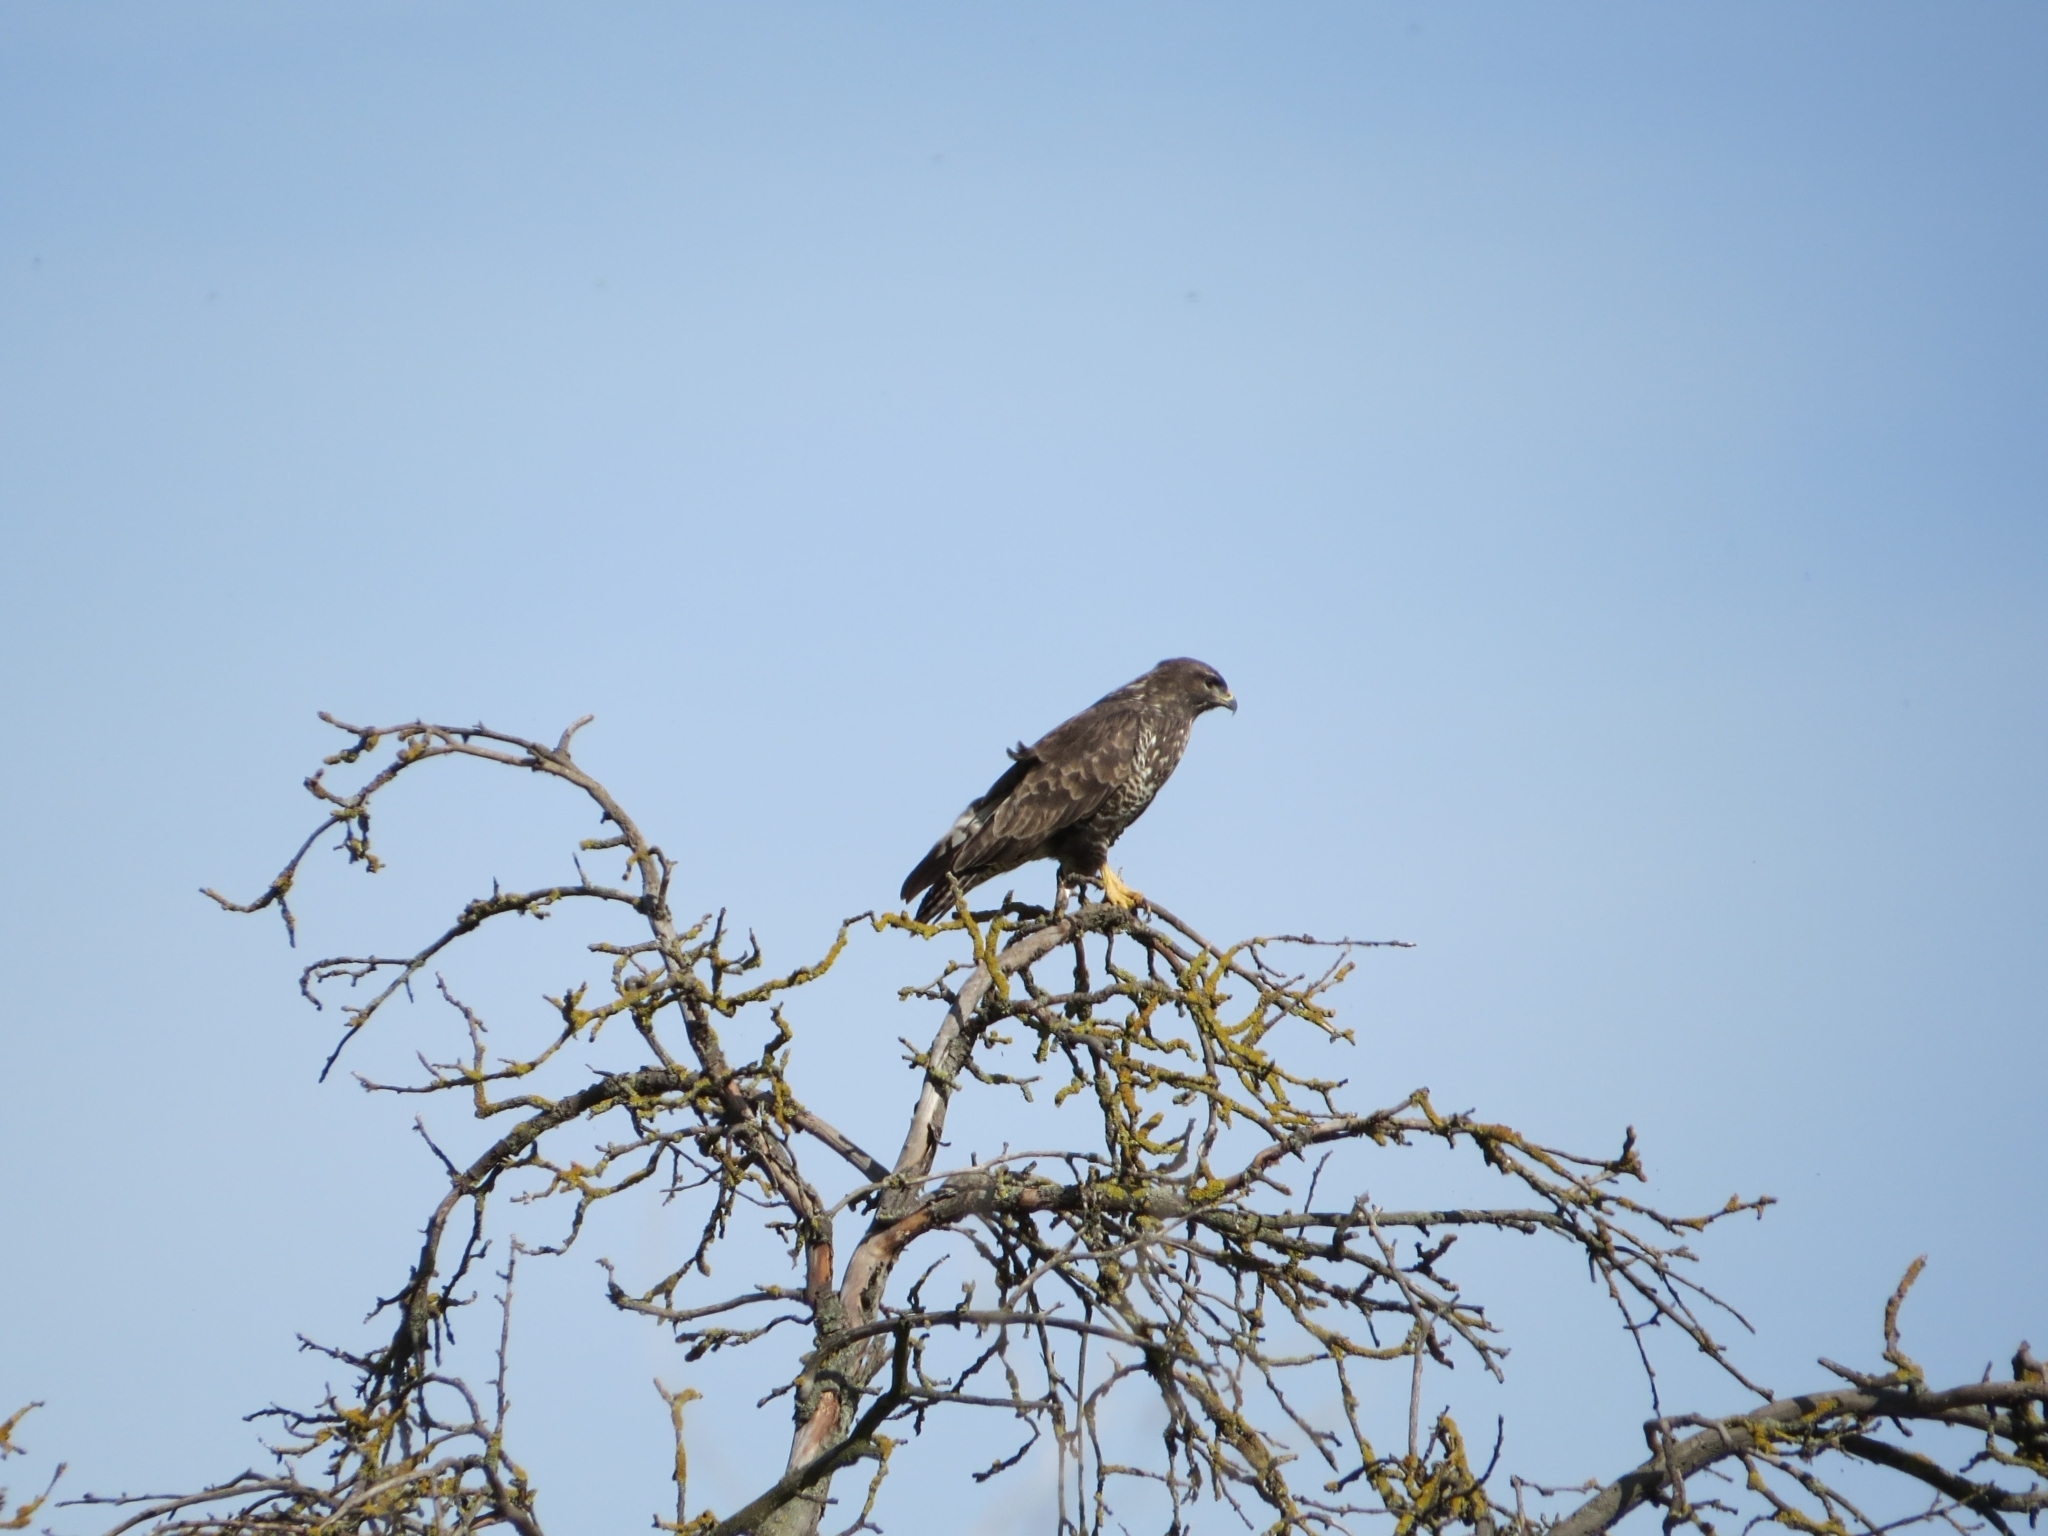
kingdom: Animalia
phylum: Chordata
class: Aves
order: Accipitriformes
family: Accipitridae
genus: Buteo
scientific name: Buteo buteo
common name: Common buzzard
